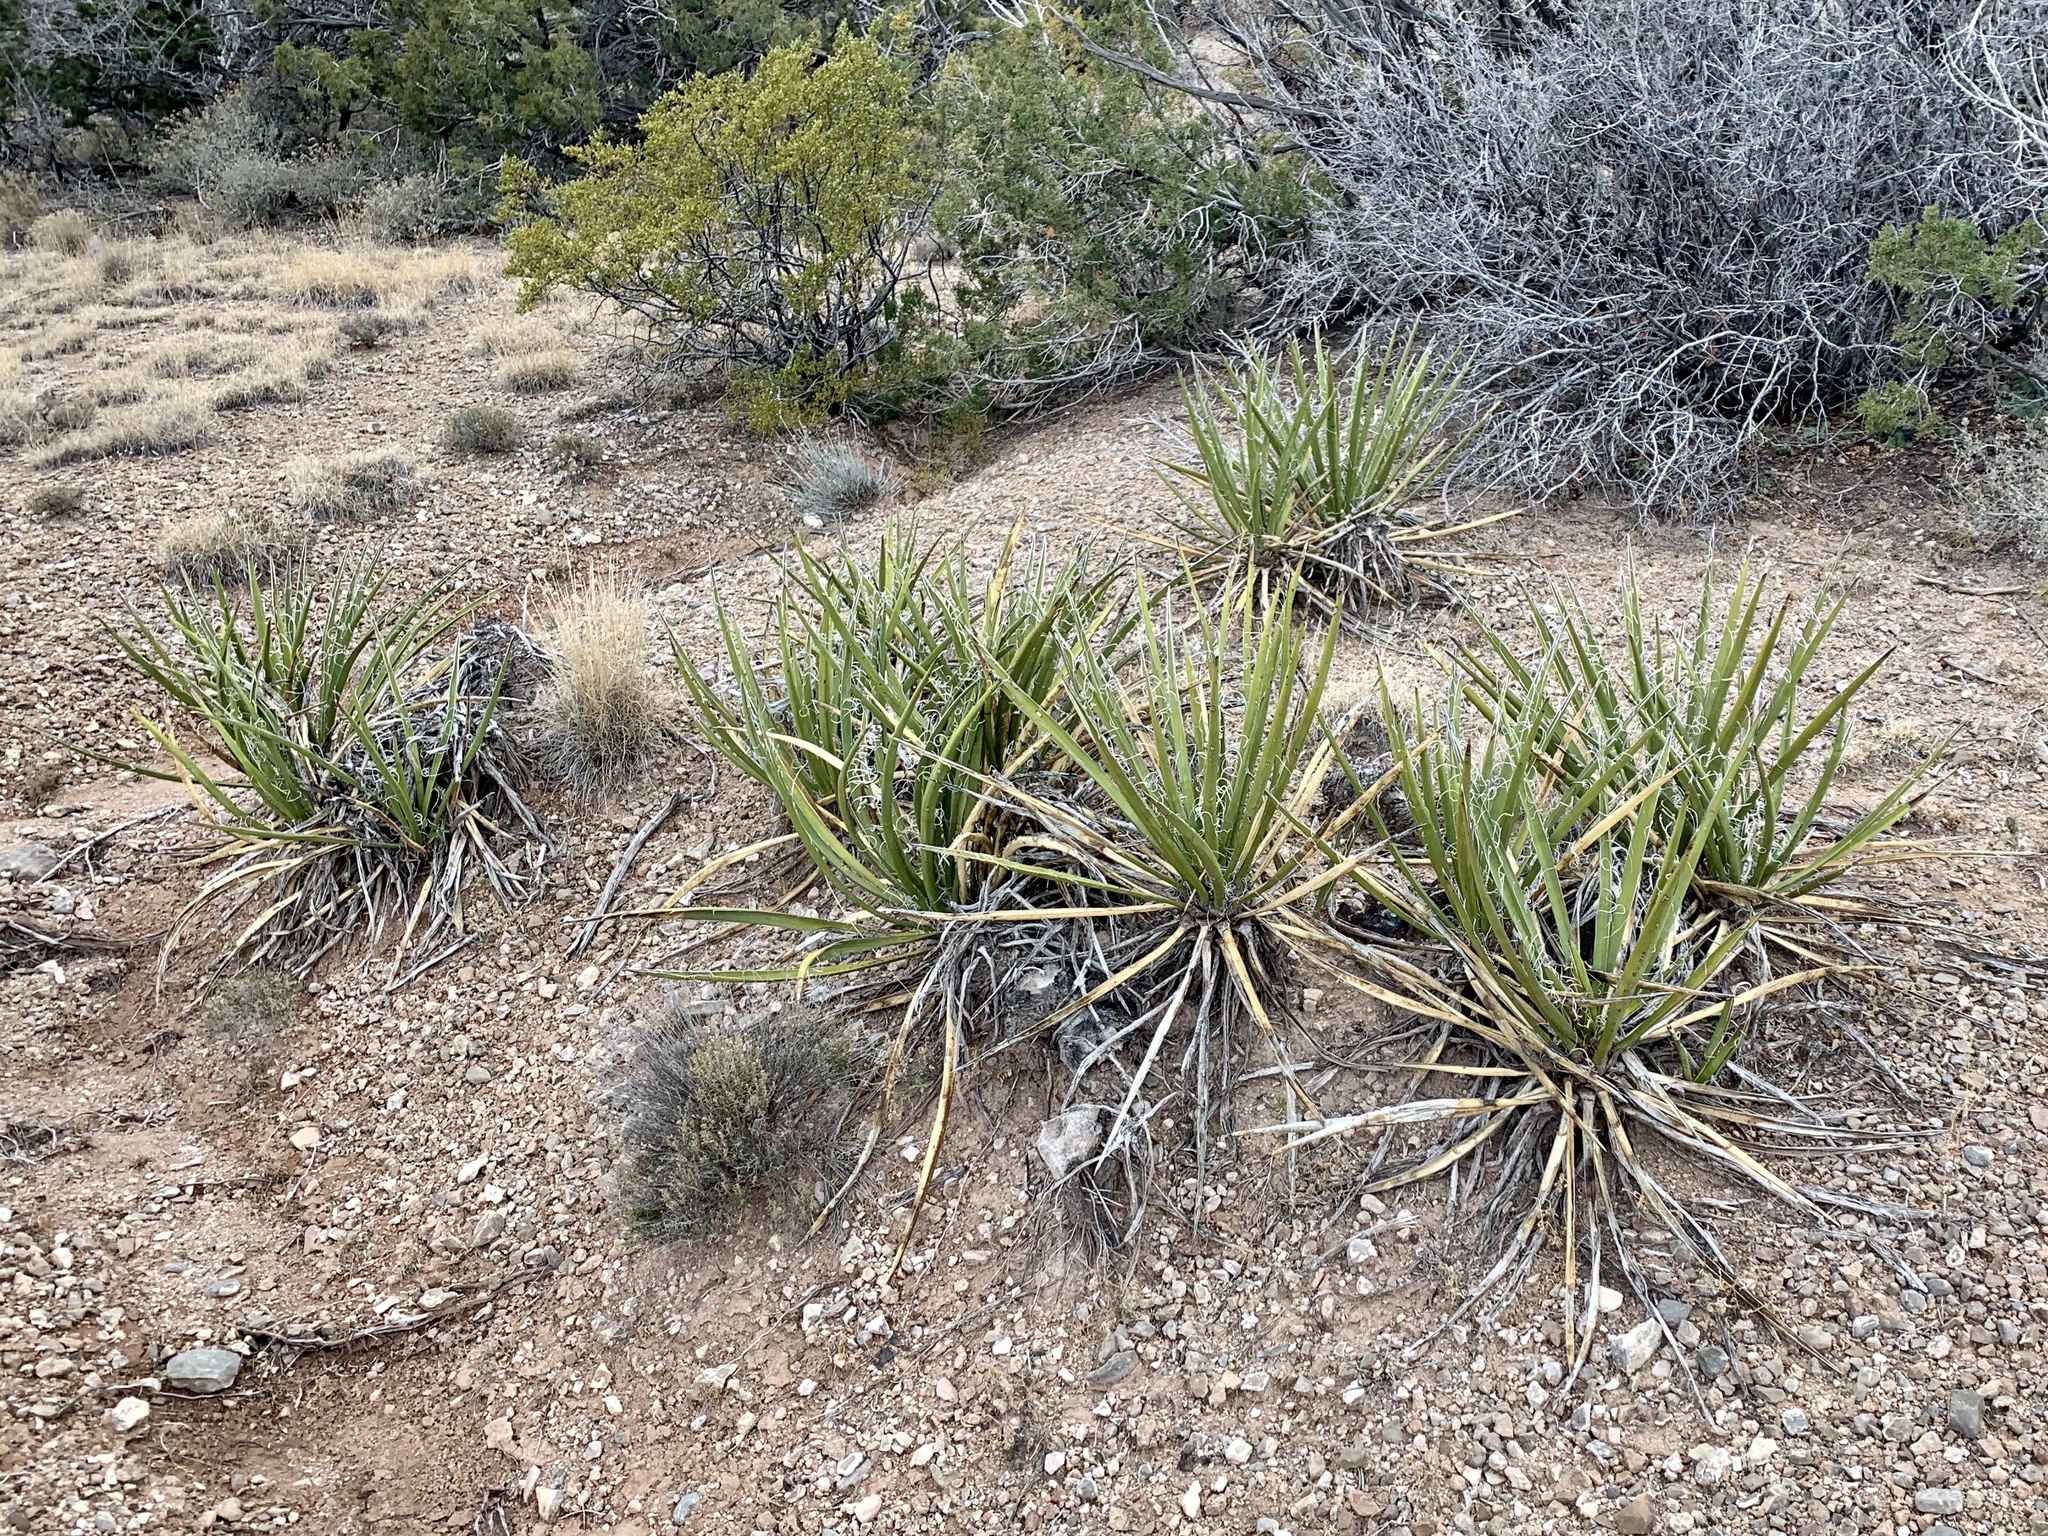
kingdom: Plantae
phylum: Tracheophyta
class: Liliopsida
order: Asparagales
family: Asparagaceae
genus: Yucca
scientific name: Yucca baccata
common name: Banana yucca
